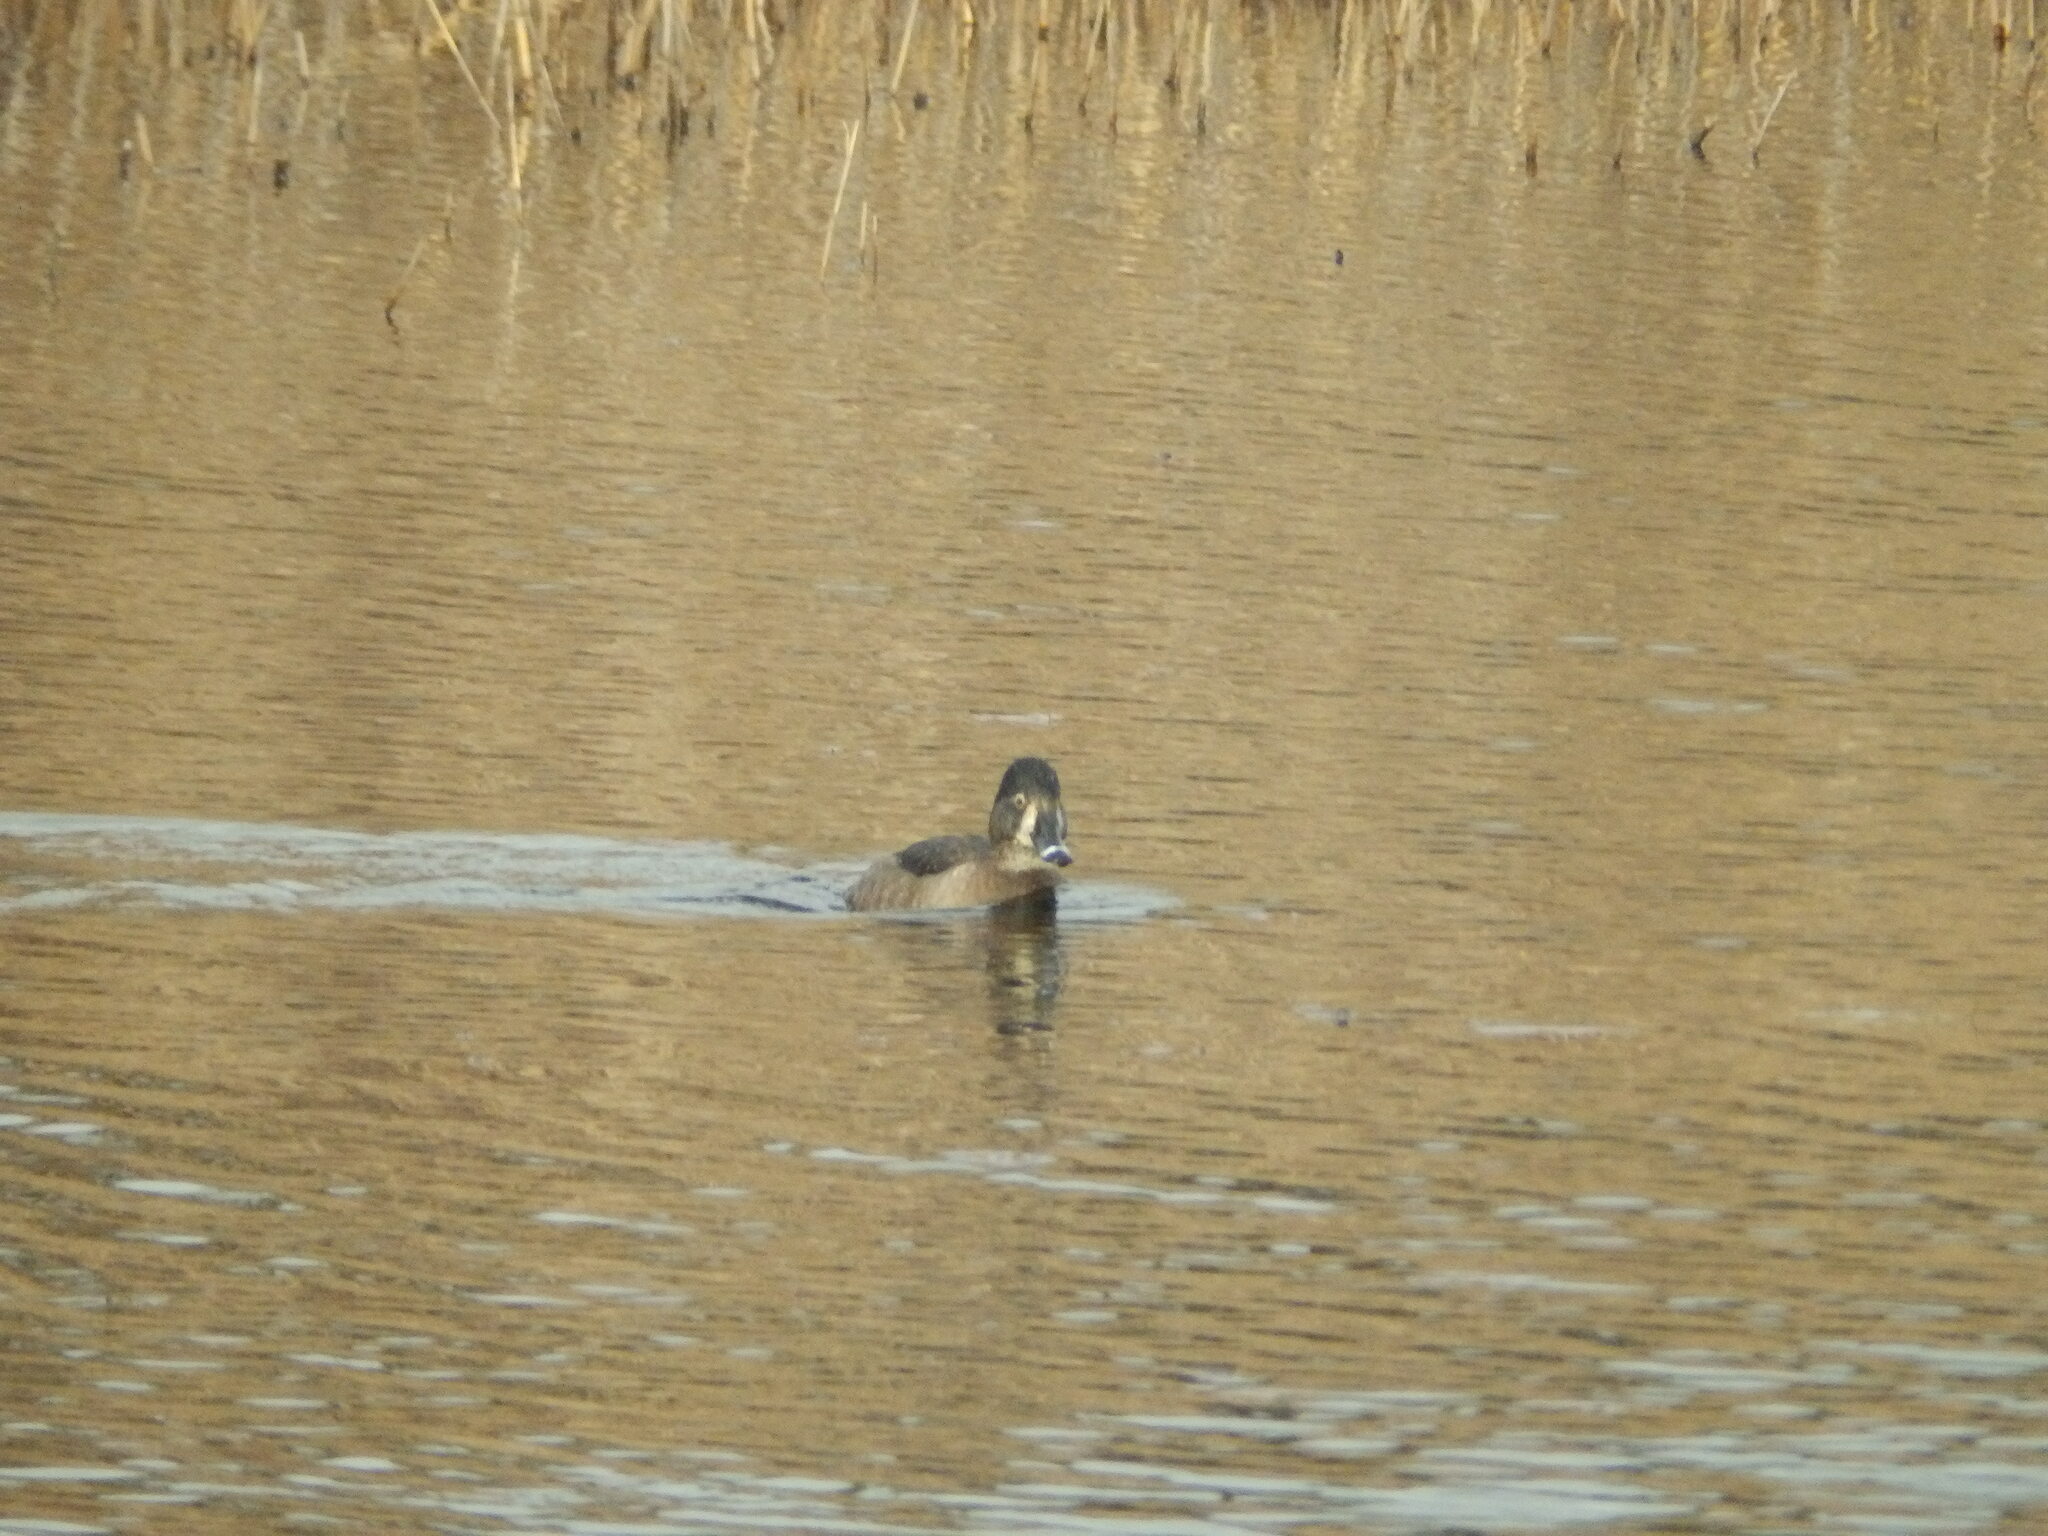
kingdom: Animalia
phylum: Chordata
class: Aves
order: Anseriformes
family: Anatidae
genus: Aythya
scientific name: Aythya collaris
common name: Ring-necked duck
